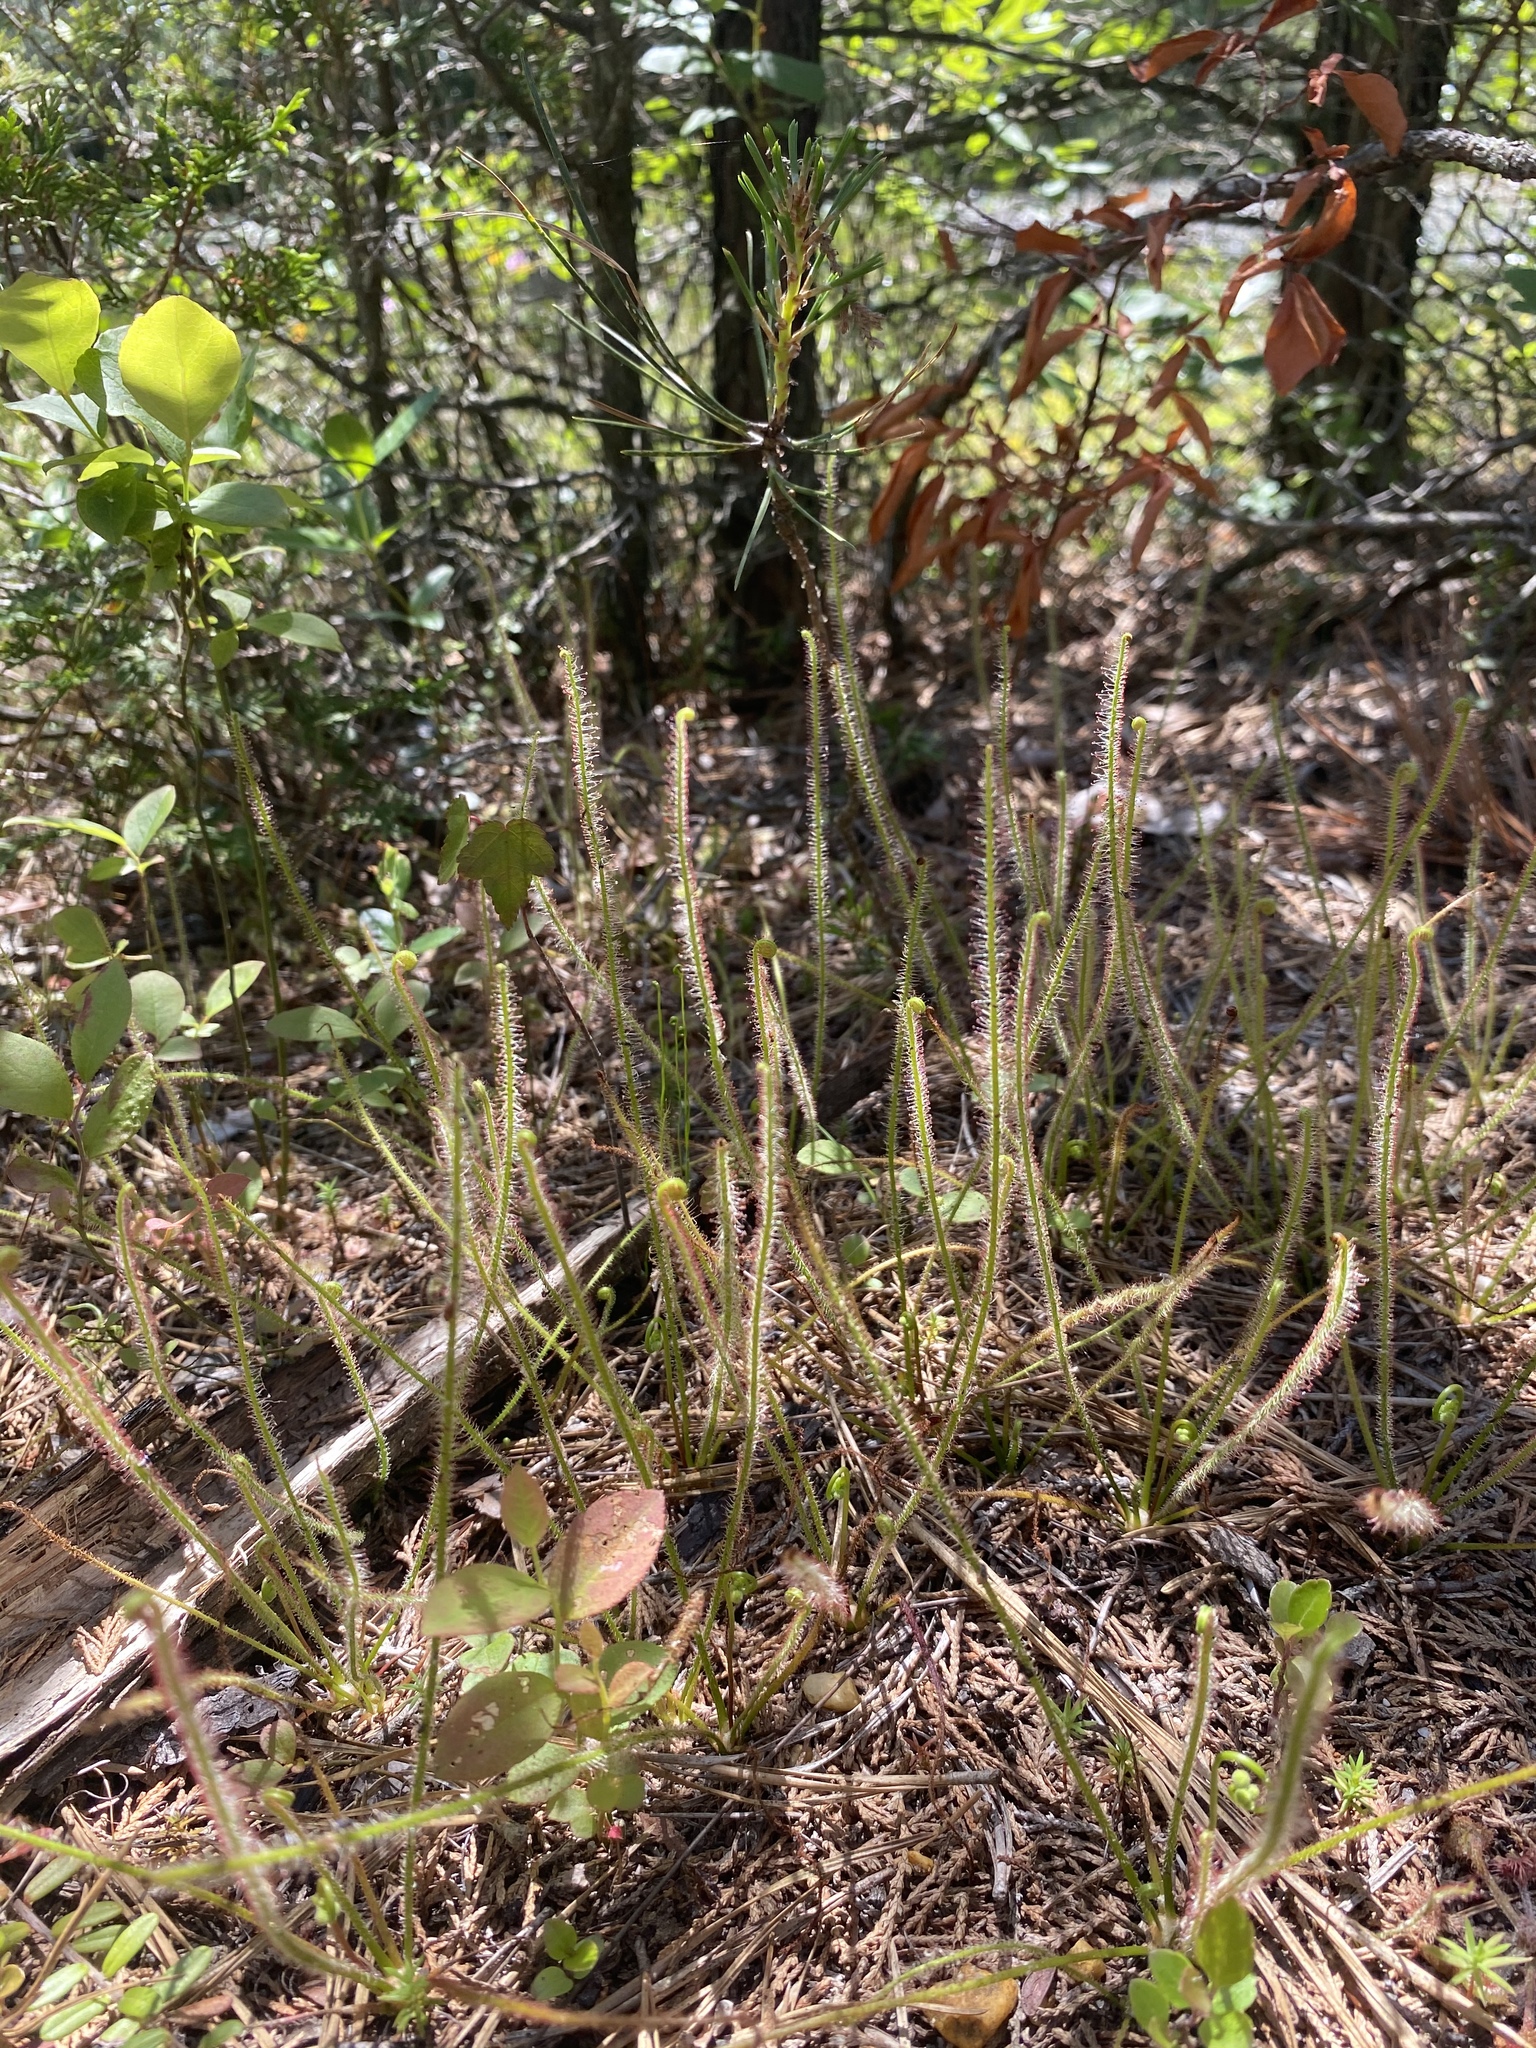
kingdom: Plantae
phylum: Tracheophyta
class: Magnoliopsida
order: Caryophyllales
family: Droseraceae
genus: Drosera
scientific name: Drosera filiformis
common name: Dew-thread
